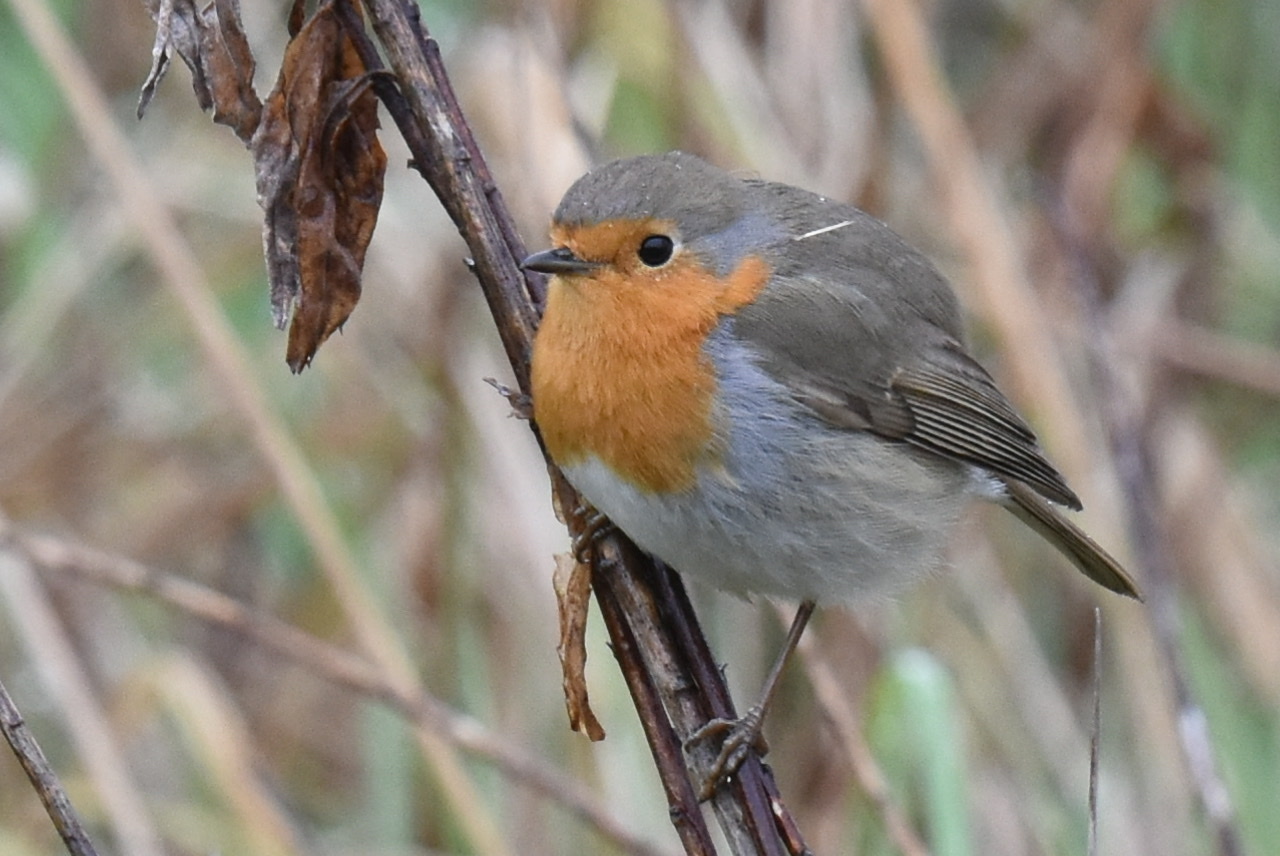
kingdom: Animalia
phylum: Chordata
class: Aves
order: Passeriformes
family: Muscicapidae
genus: Erithacus
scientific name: Erithacus rubecula
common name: European robin
